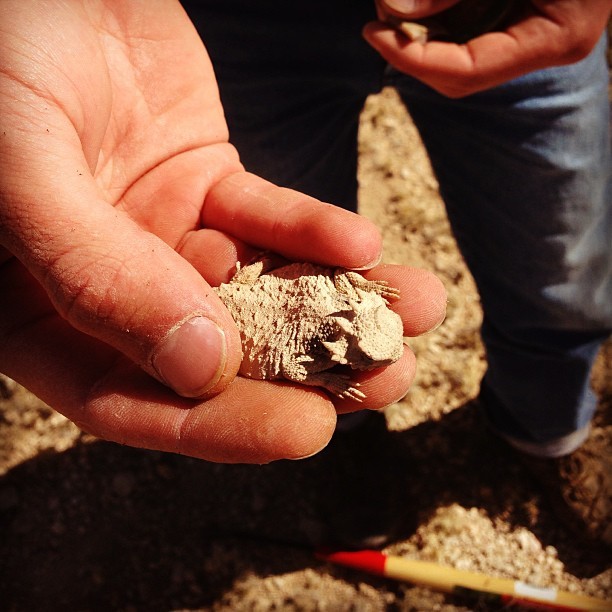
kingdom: Animalia
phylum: Chordata
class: Squamata
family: Phrynosomatidae
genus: Phrynosoma
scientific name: Phrynosoma modestum
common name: Roundtail horned lizard
